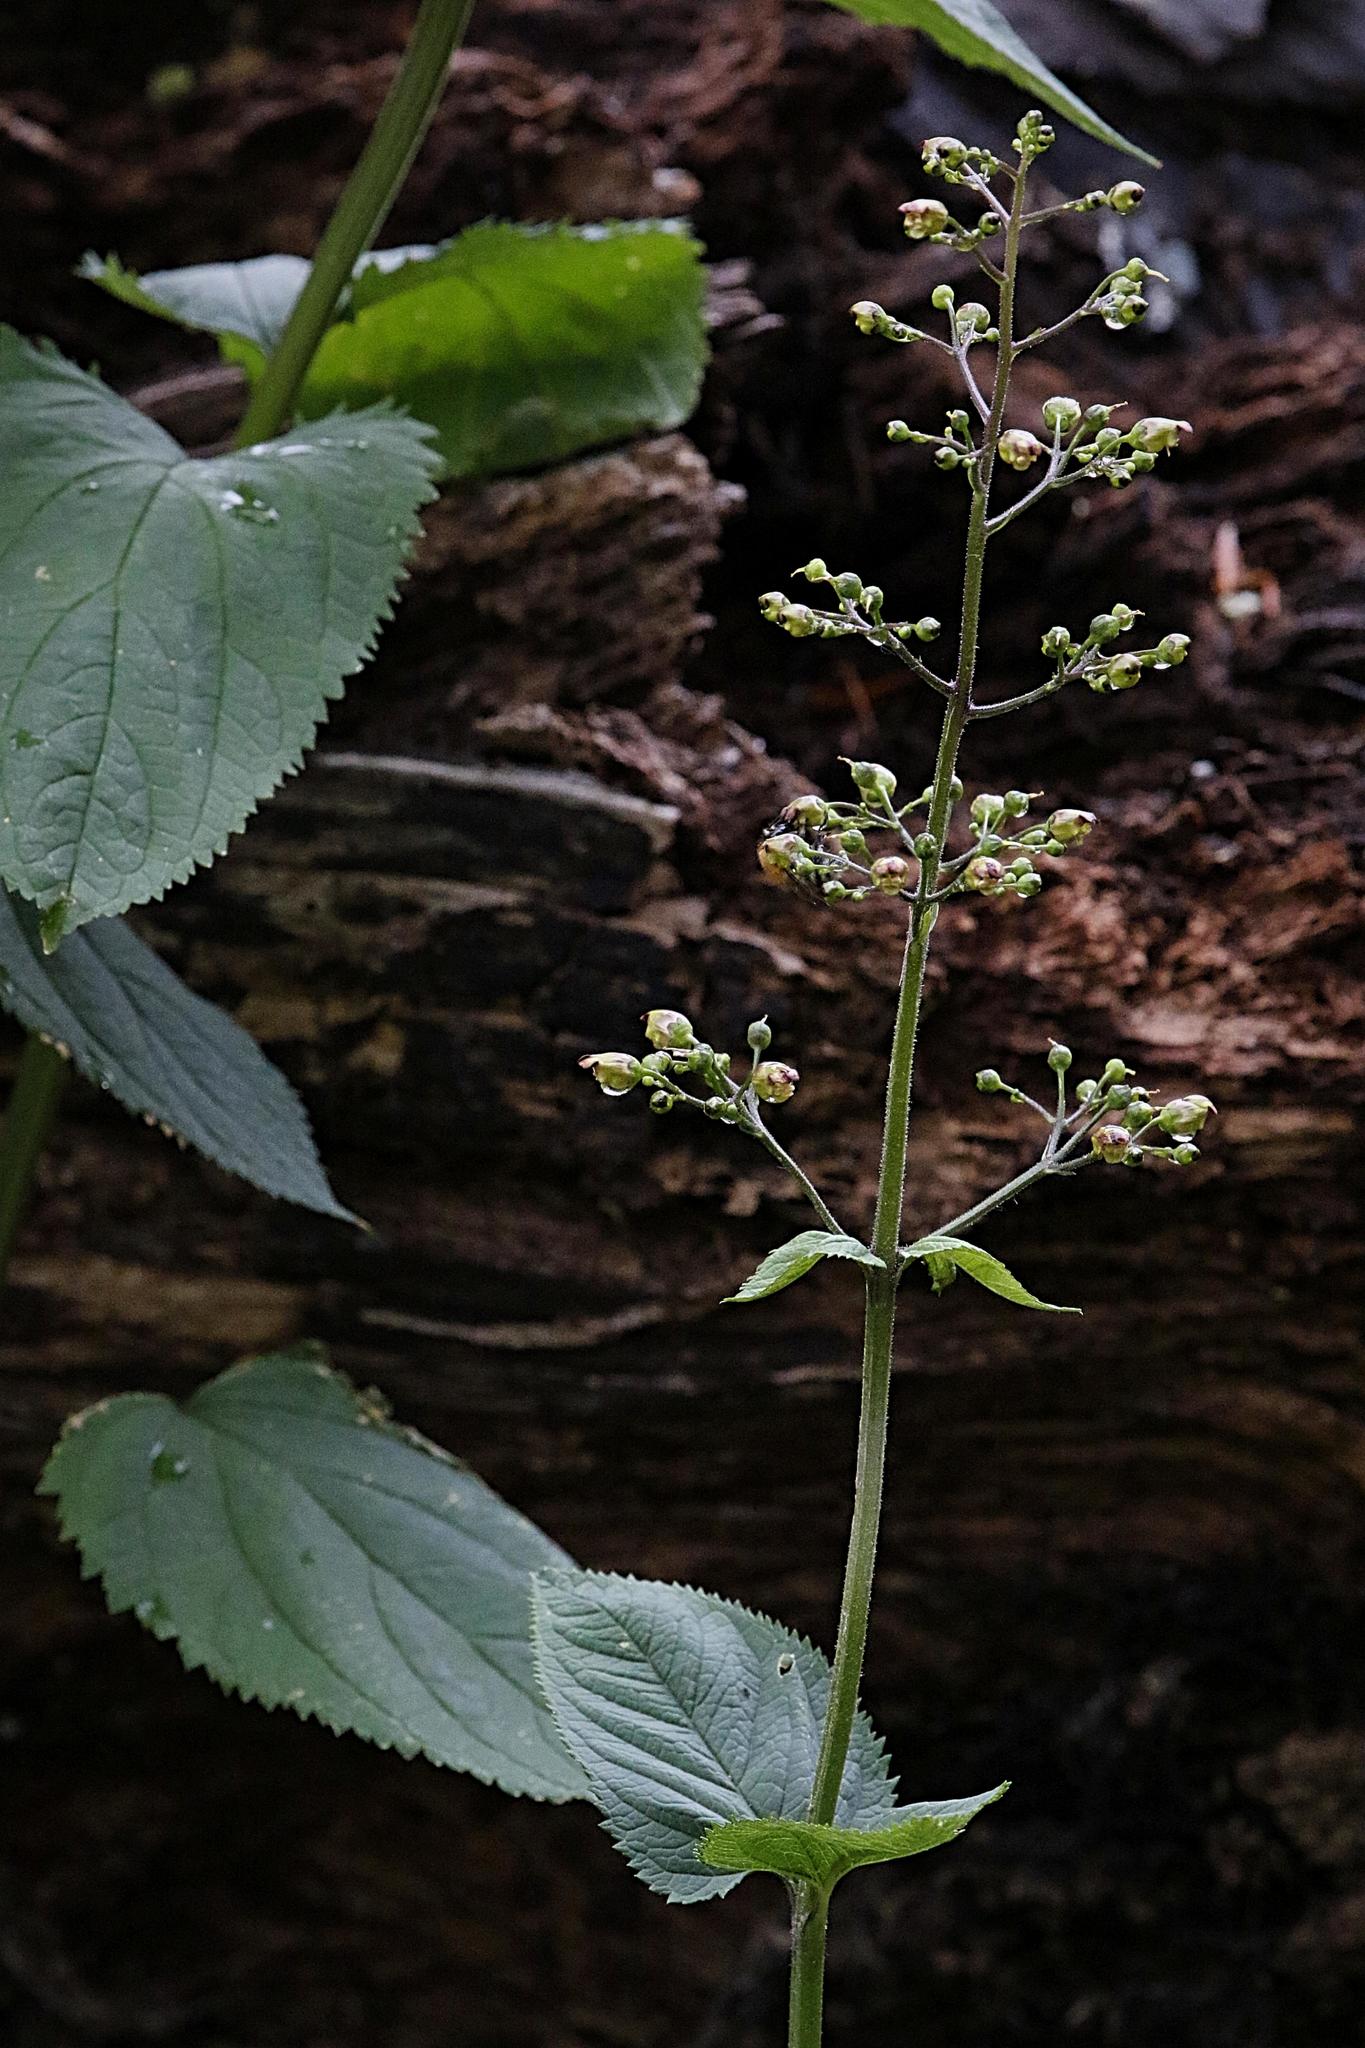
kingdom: Plantae
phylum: Tracheophyta
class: Magnoliopsida
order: Lamiales
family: Scrophulariaceae
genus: Scrophularia
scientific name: Scrophularia nodosa
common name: Common figwort
